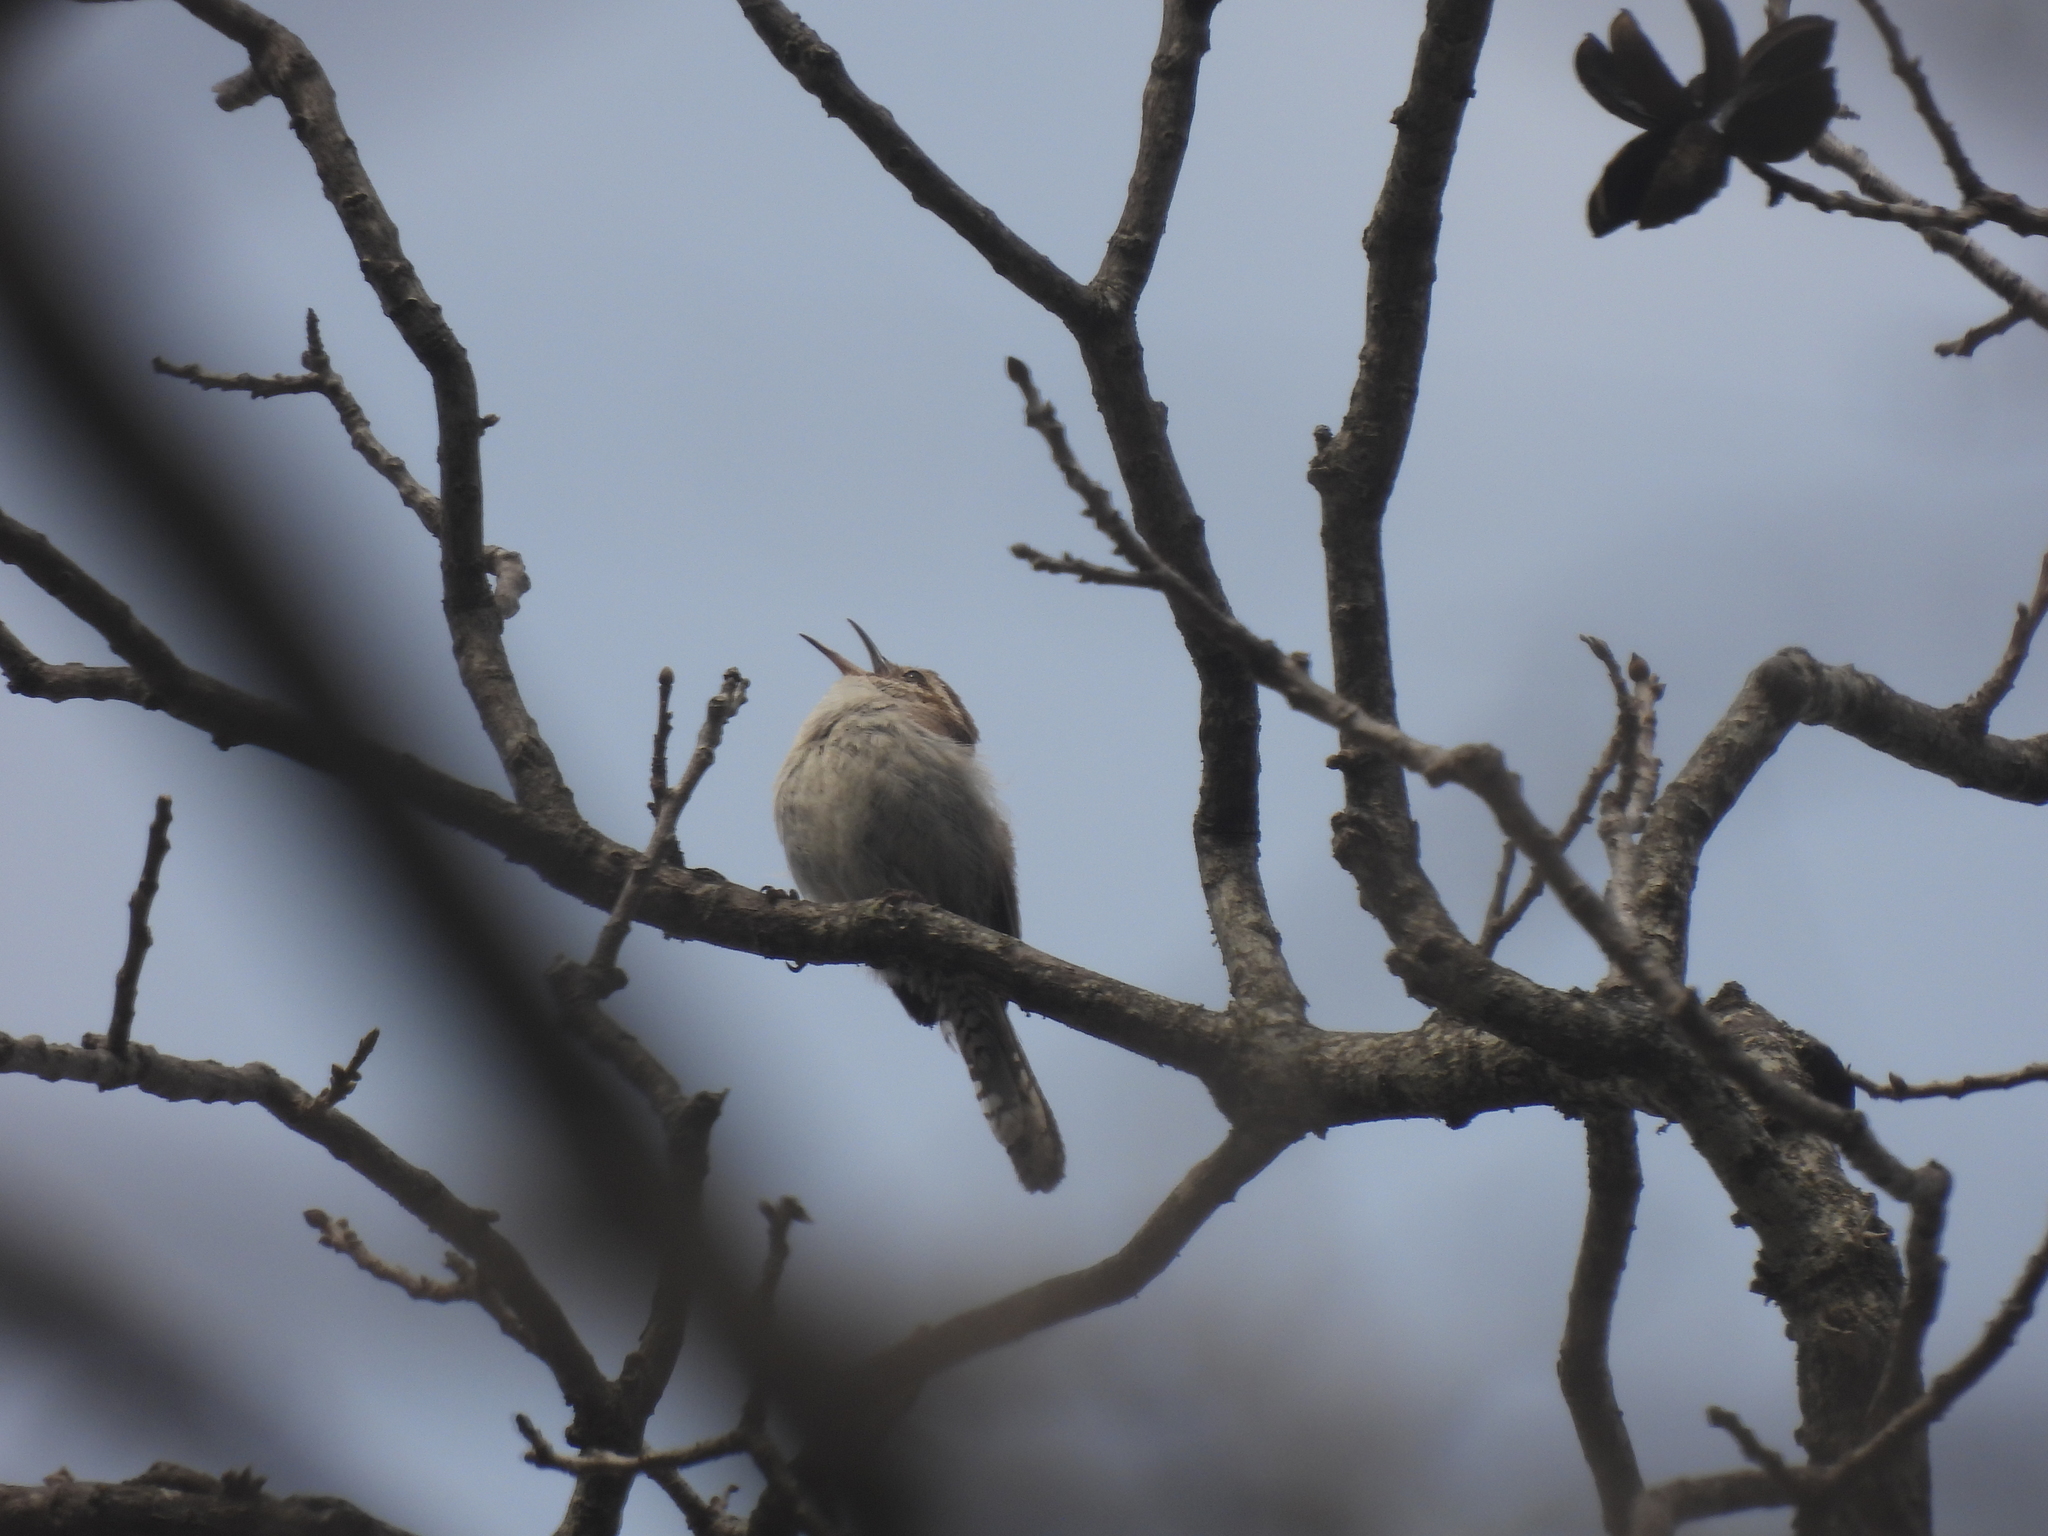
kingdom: Animalia
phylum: Chordata
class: Aves
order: Passeriformes
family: Troglodytidae
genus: Thryomanes
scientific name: Thryomanes bewickii
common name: Bewick's wren
